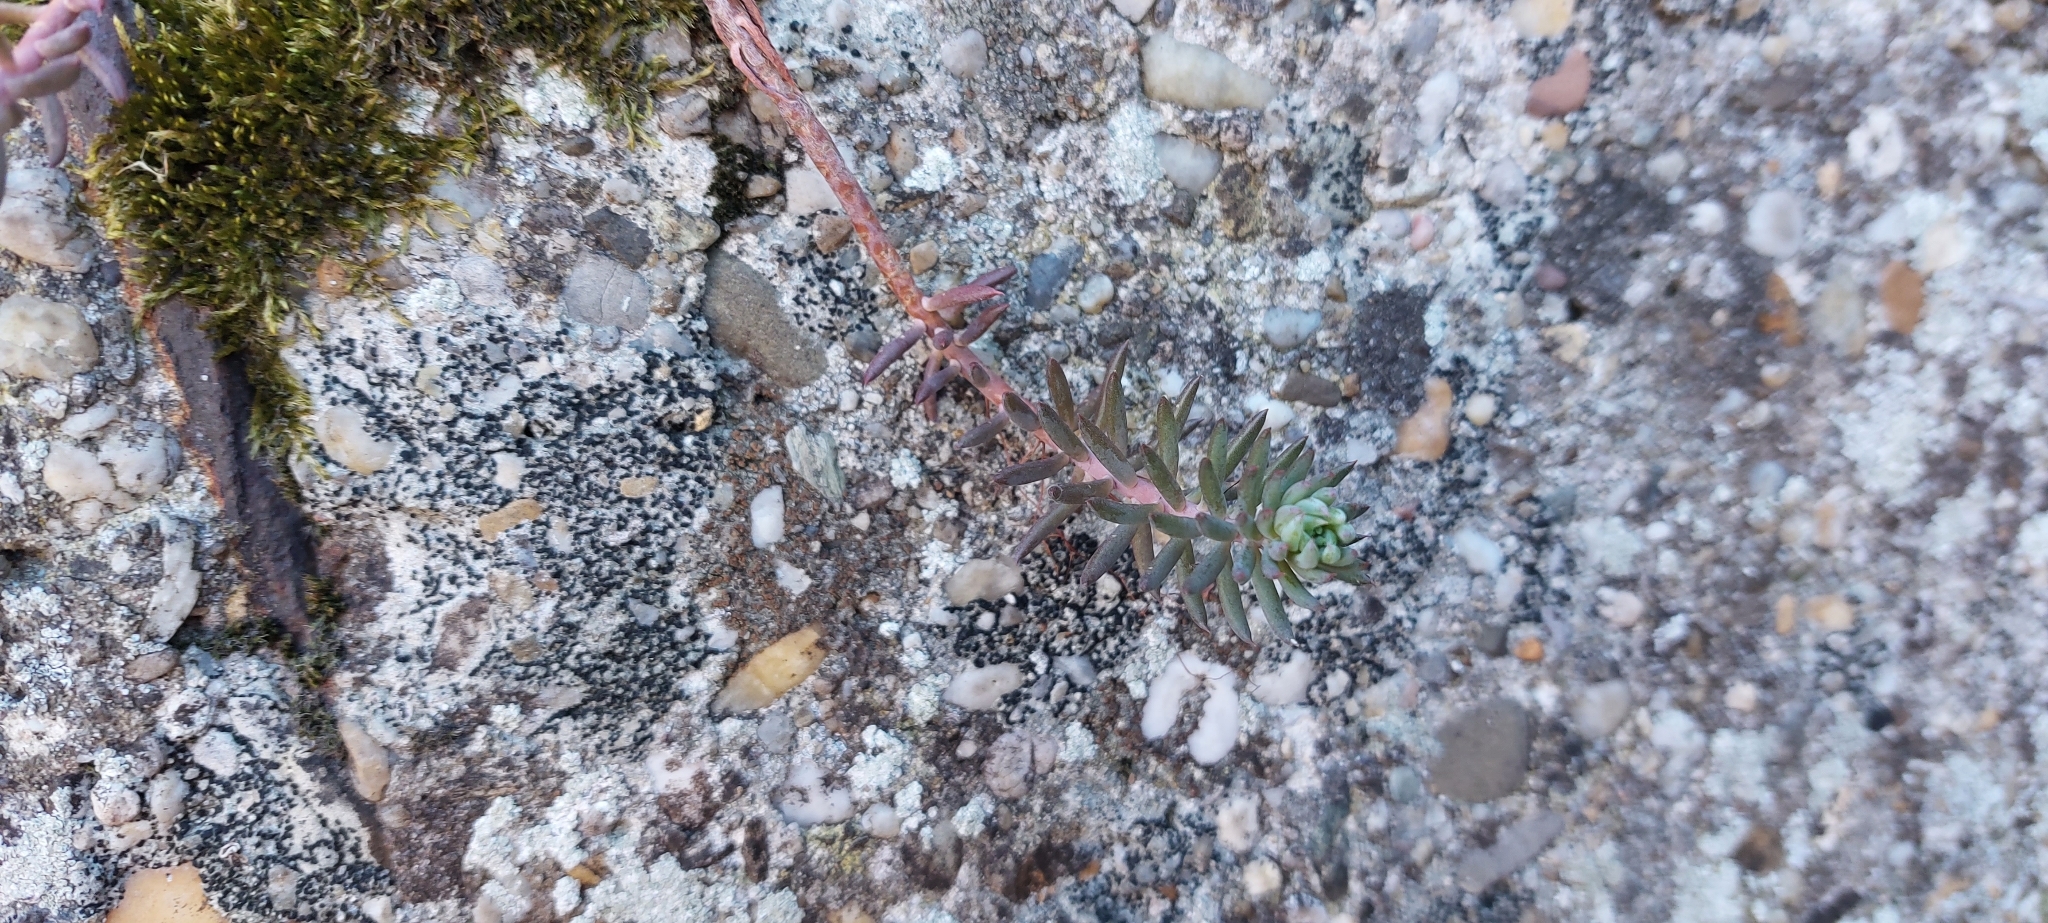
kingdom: Plantae
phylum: Tracheophyta
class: Magnoliopsida
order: Saxifragales
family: Crassulaceae
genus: Petrosedum
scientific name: Petrosedum
